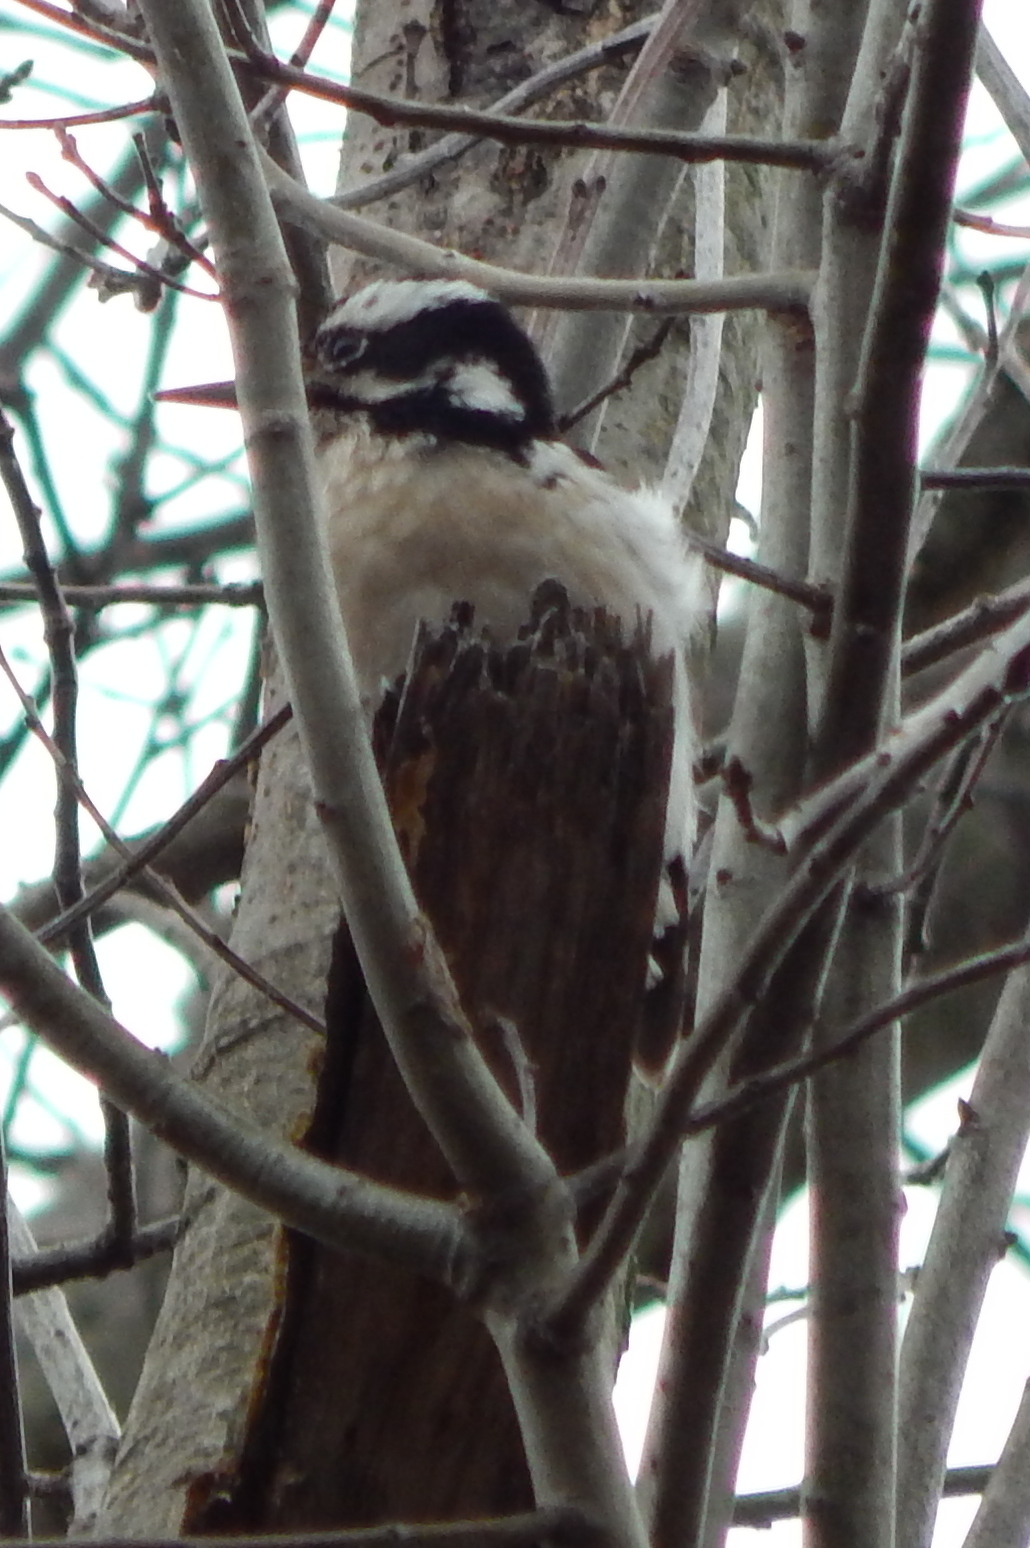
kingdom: Animalia
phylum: Chordata
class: Aves
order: Piciformes
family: Picidae
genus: Leuconotopicus
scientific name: Leuconotopicus villosus
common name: Hairy woodpecker
